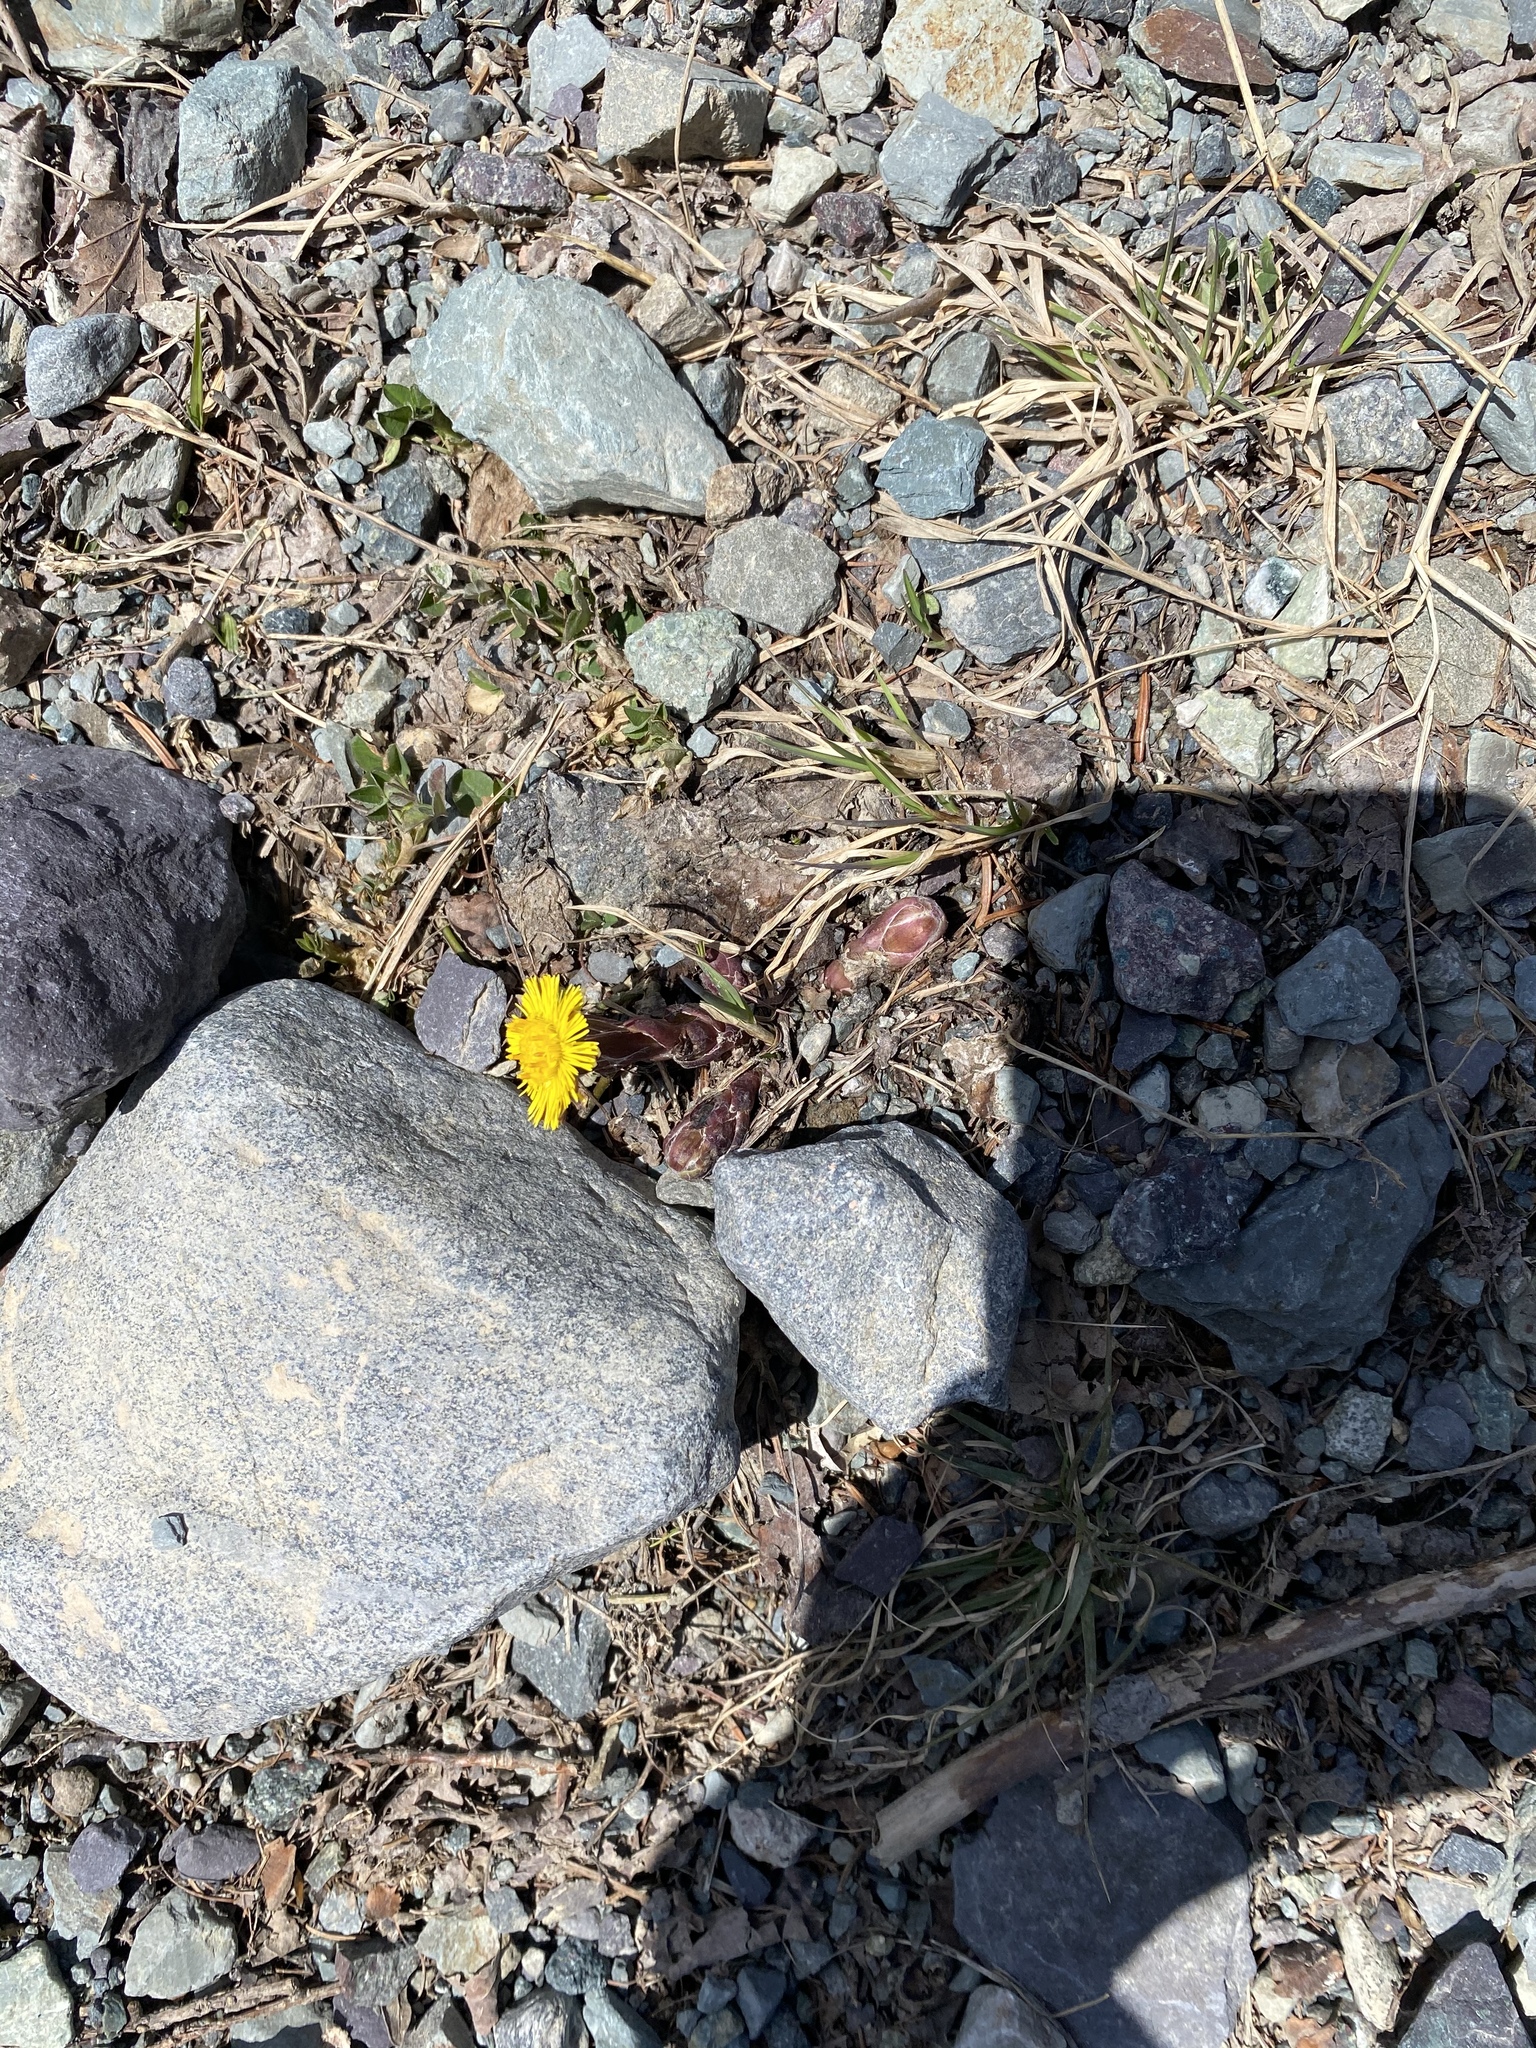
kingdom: Plantae
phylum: Tracheophyta
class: Magnoliopsida
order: Asterales
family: Asteraceae
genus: Tussilago
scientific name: Tussilago farfara
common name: Coltsfoot
